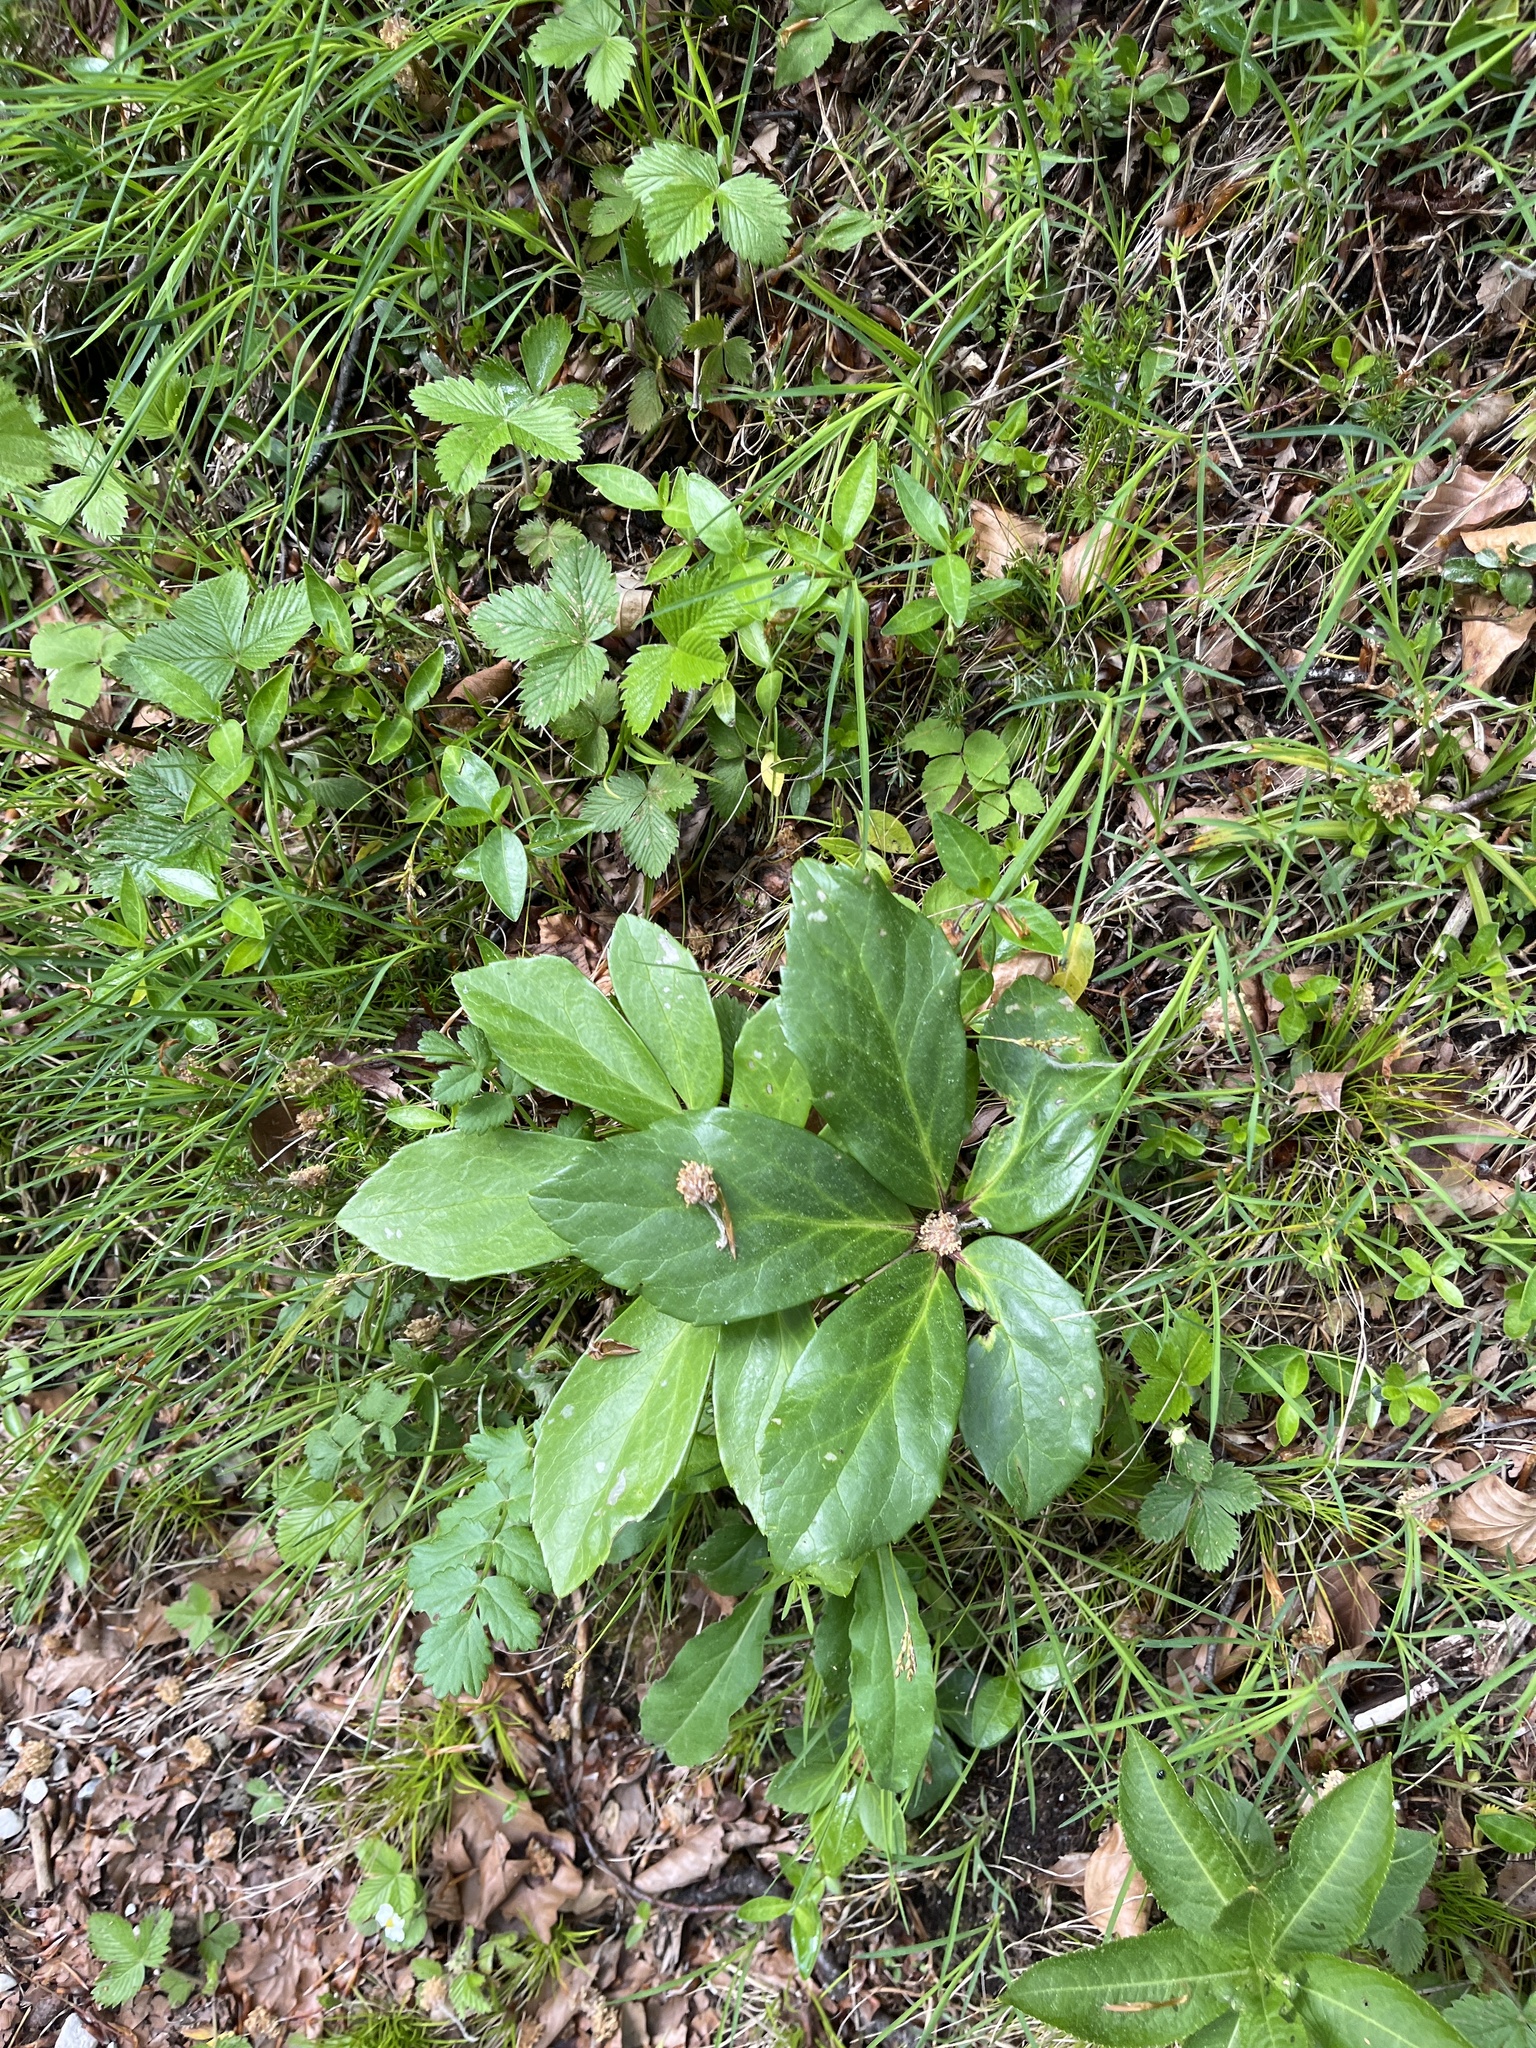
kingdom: Plantae
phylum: Tracheophyta
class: Magnoliopsida
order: Ranunculales
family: Ranunculaceae
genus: Helleborus
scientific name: Helleborus niger
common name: Black hellebore
